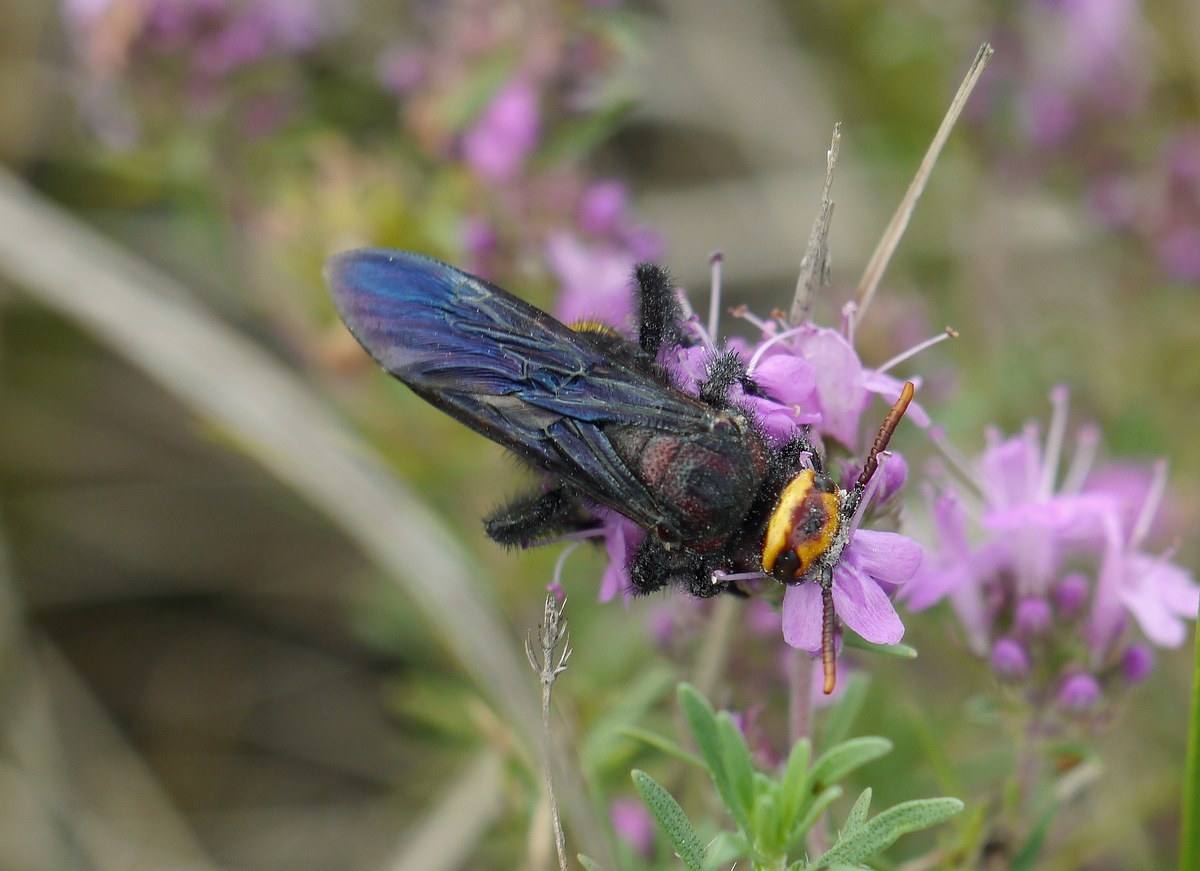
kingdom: Animalia
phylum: Arthropoda
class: Insecta
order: Hymenoptera
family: Vespidae
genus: Vespa
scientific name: Vespa galbula
